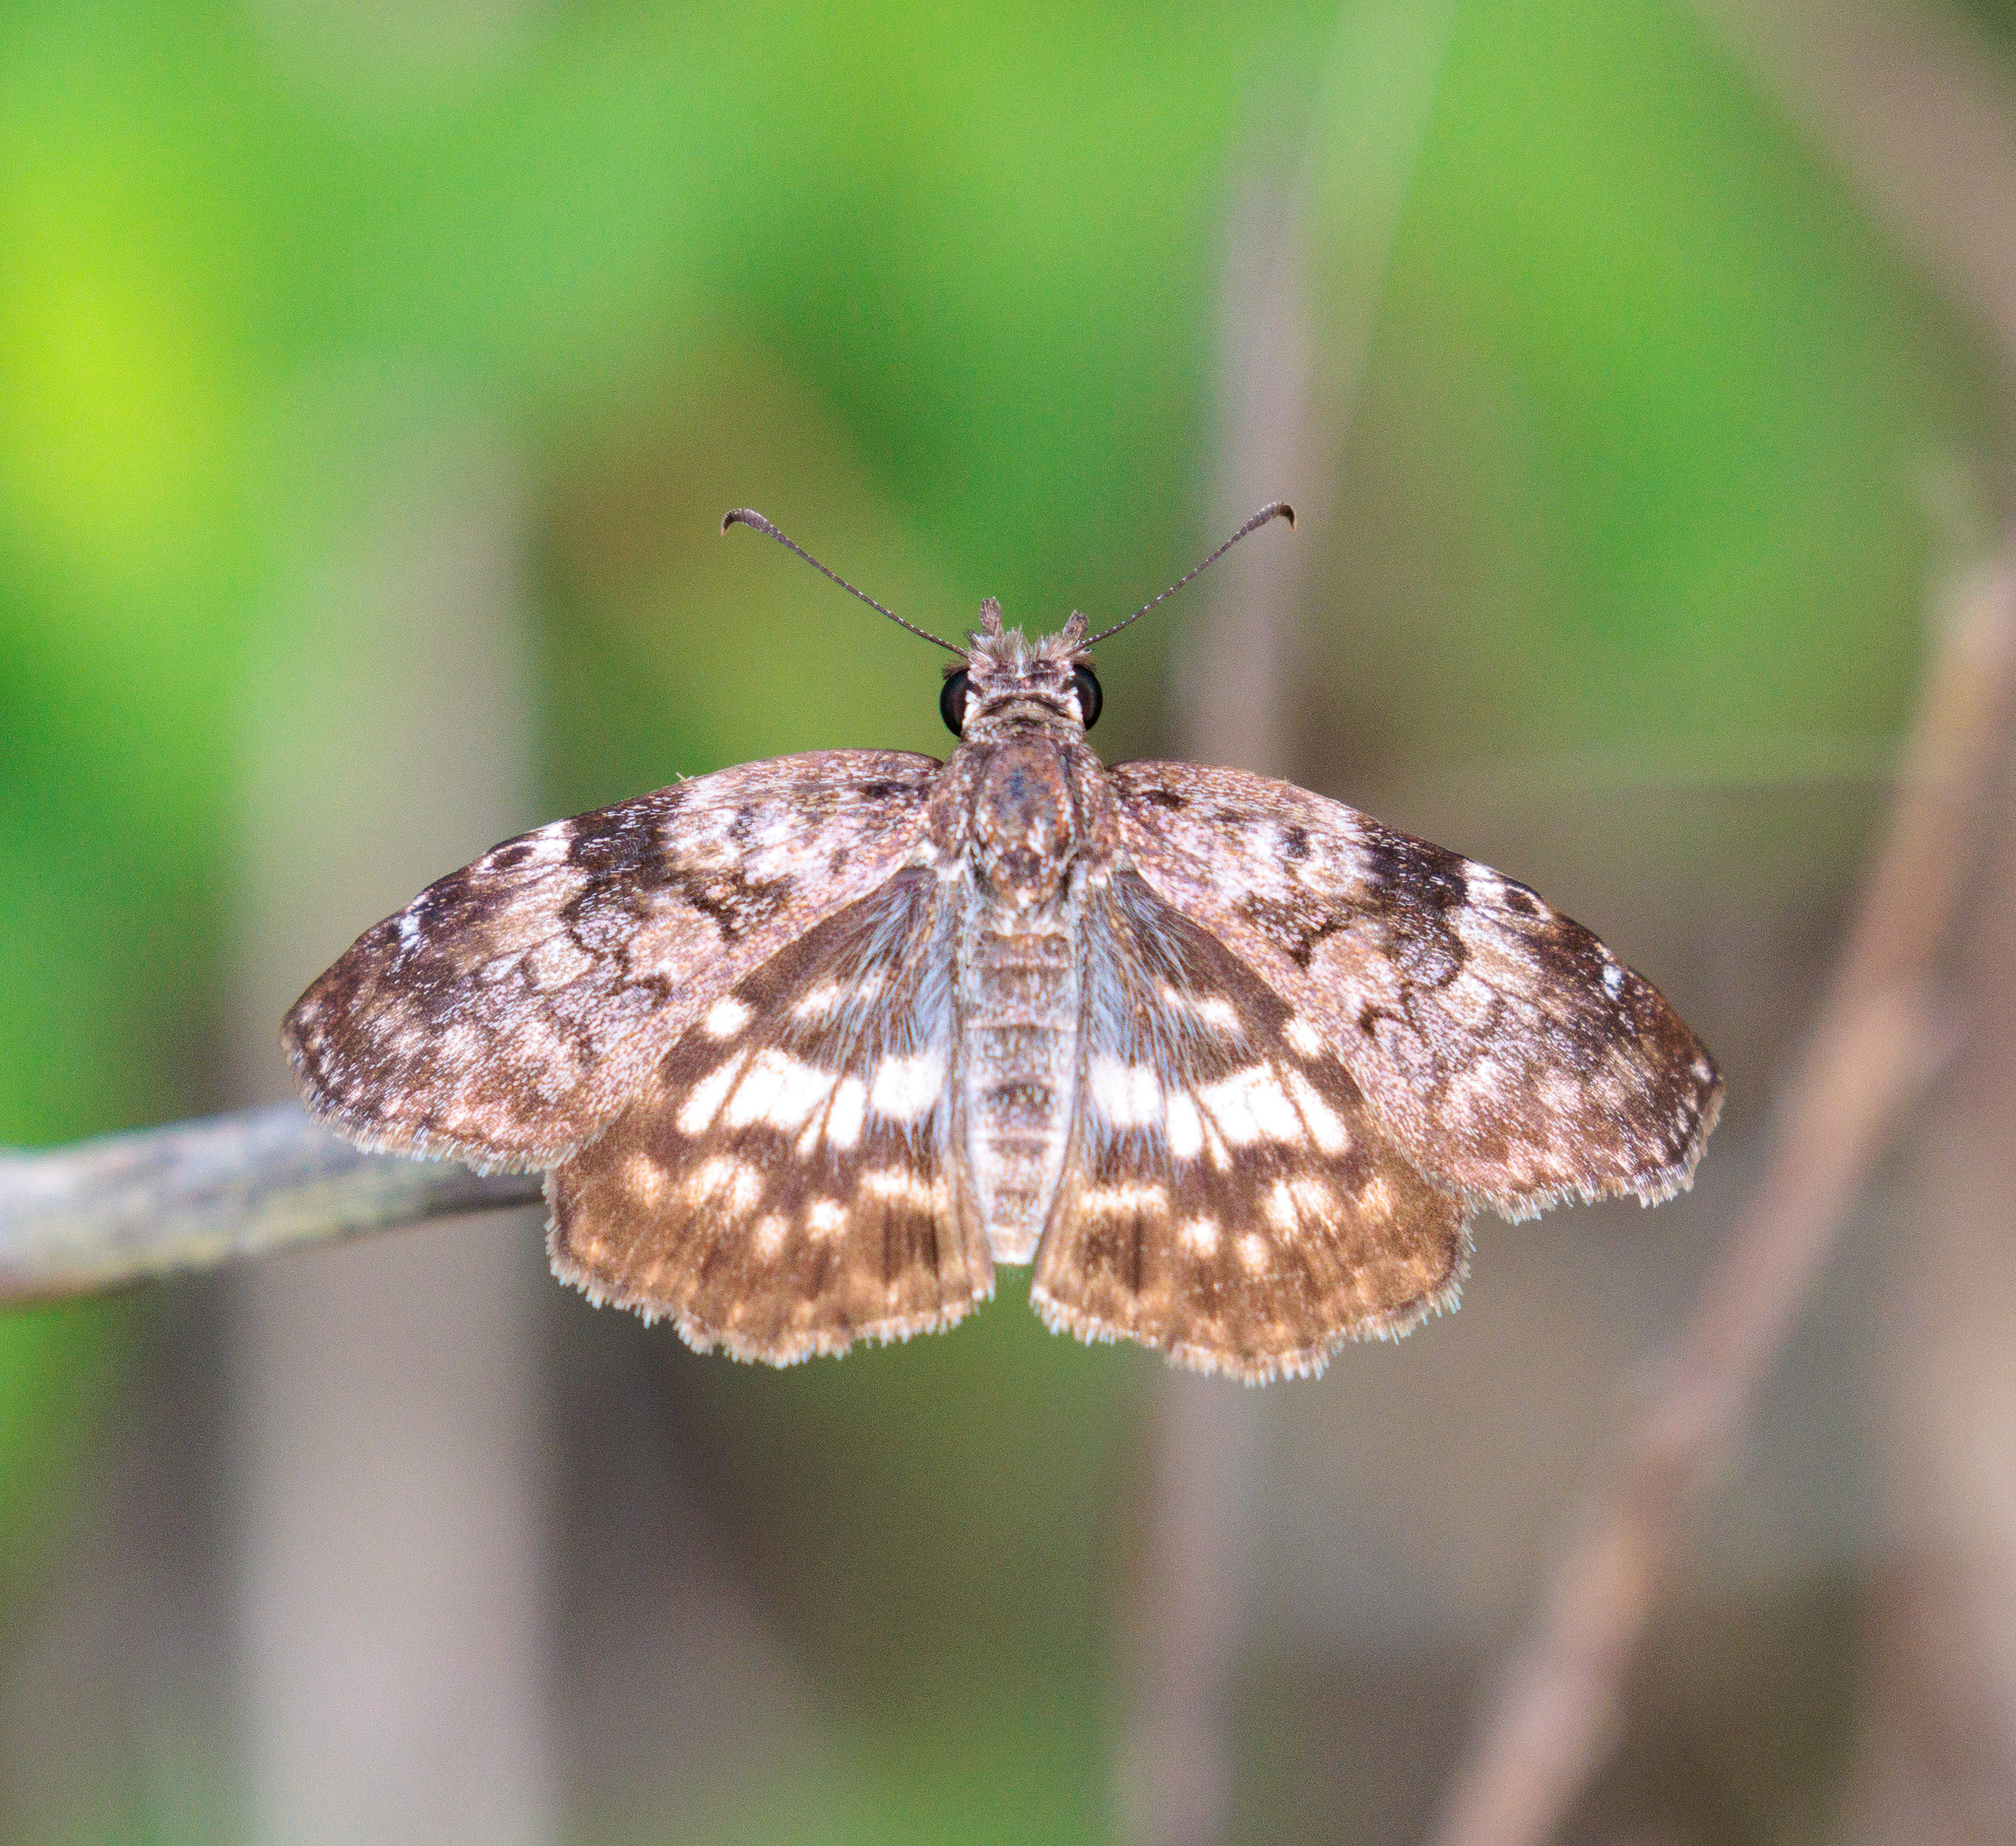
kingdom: Animalia
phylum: Arthropoda
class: Insecta
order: Lepidoptera
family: Hesperiidae
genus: Chiomara
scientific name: Chiomara asychis
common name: White-patterned skipper
